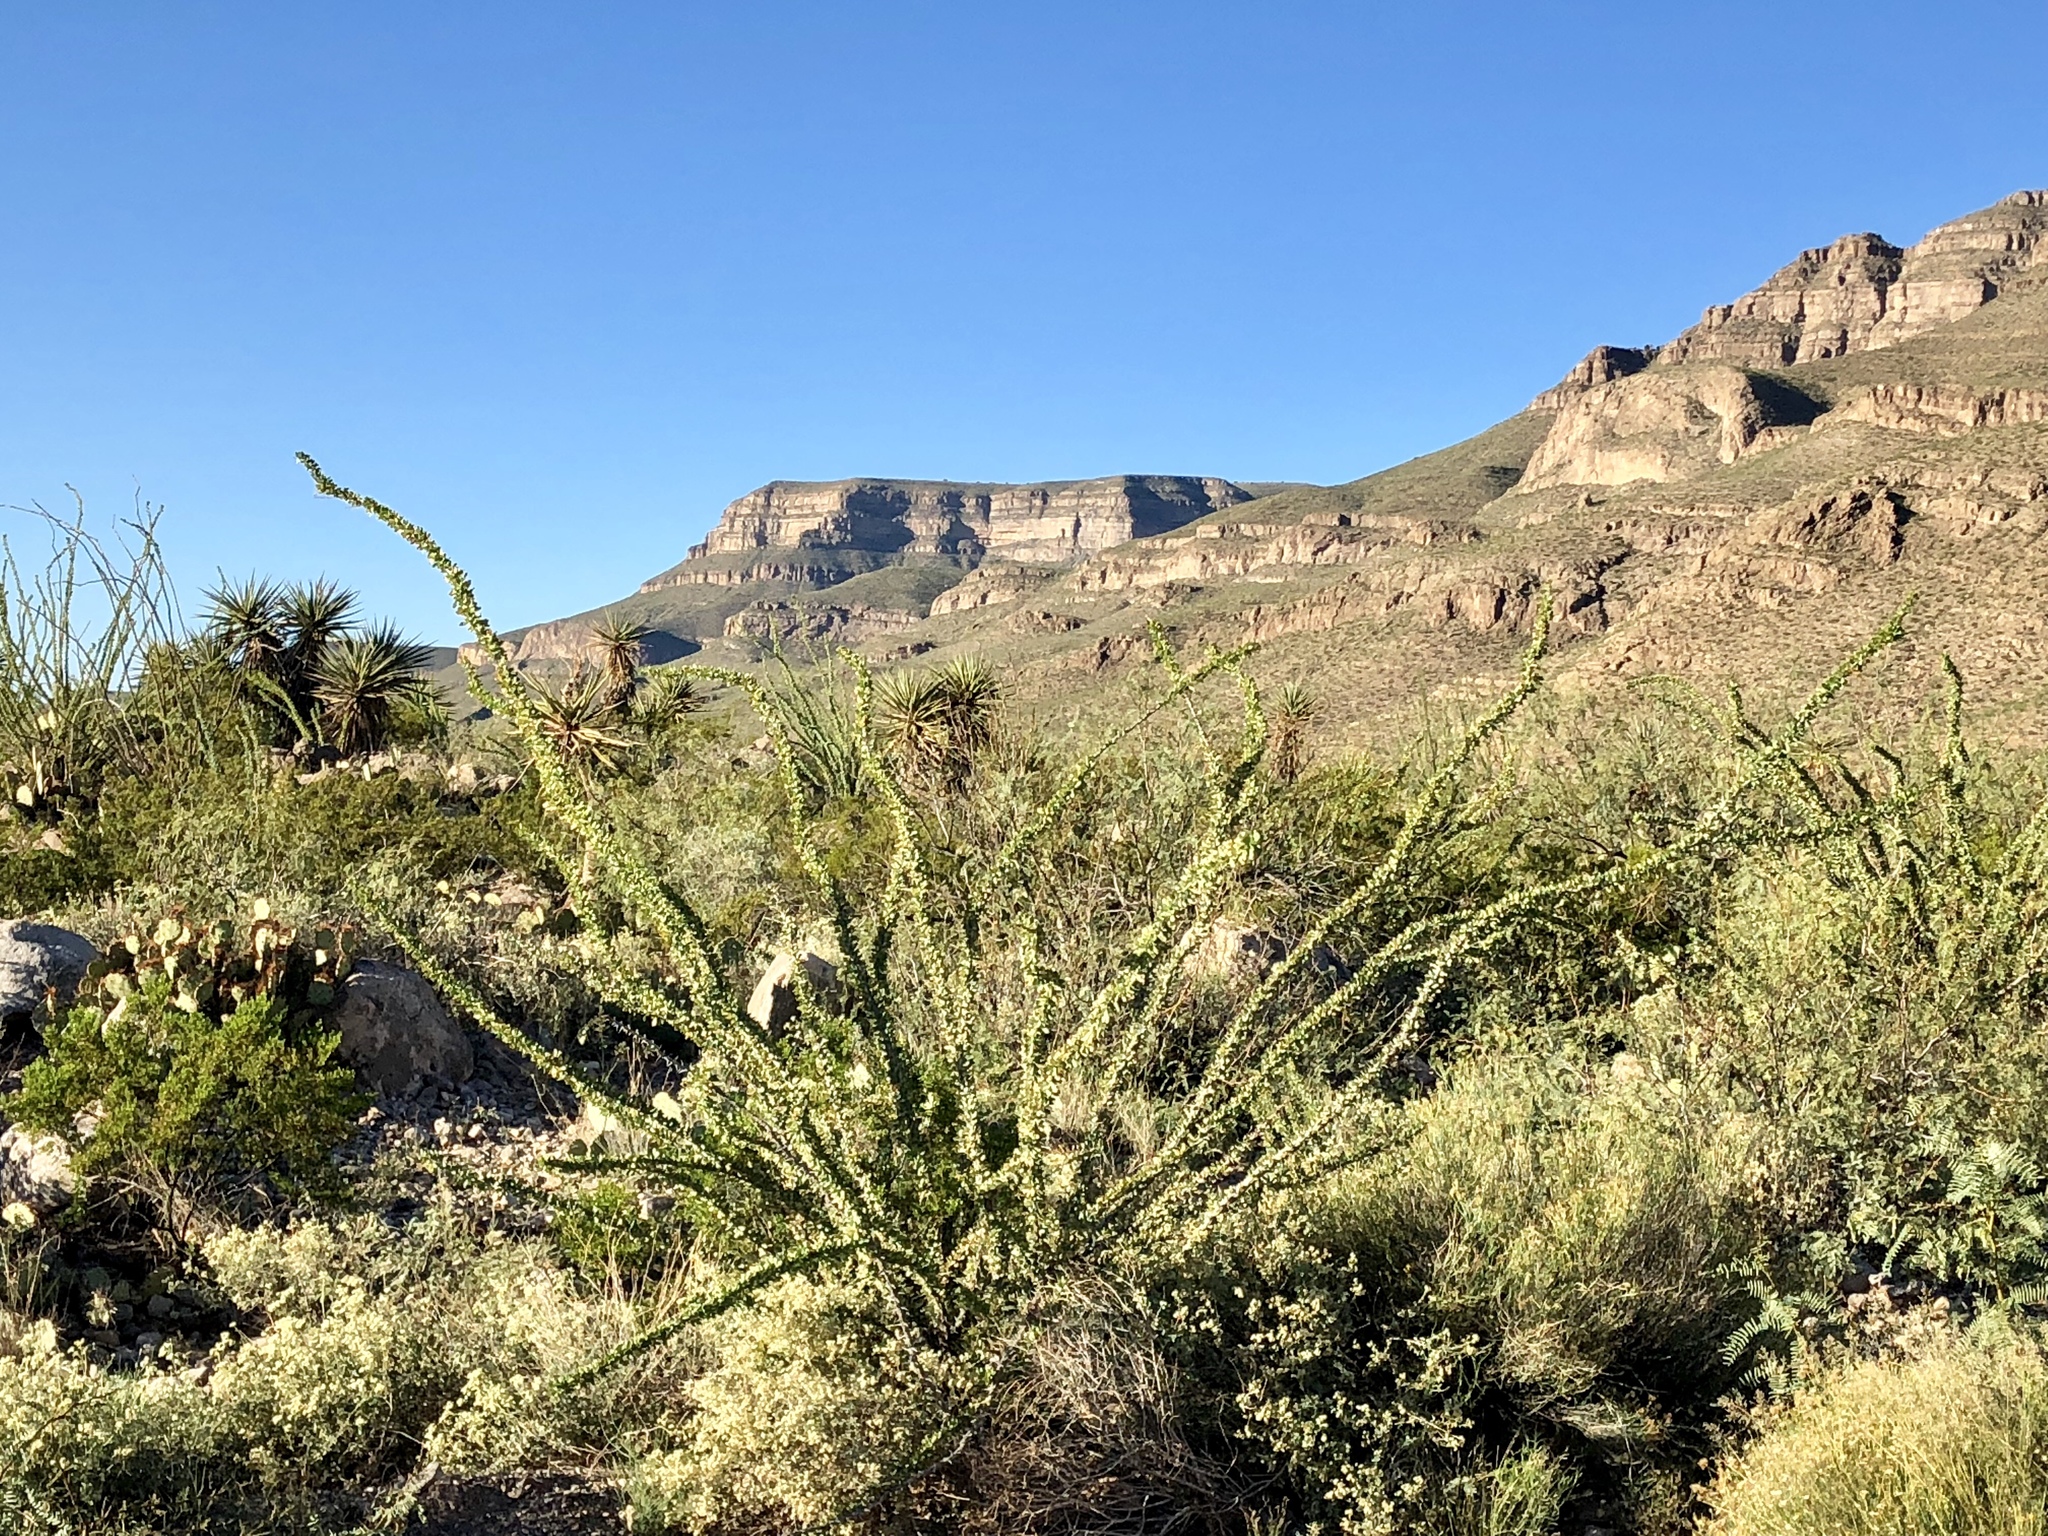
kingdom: Plantae
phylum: Tracheophyta
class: Magnoliopsida
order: Ericales
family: Fouquieriaceae
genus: Fouquieria
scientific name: Fouquieria splendens
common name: Vine-cactus
